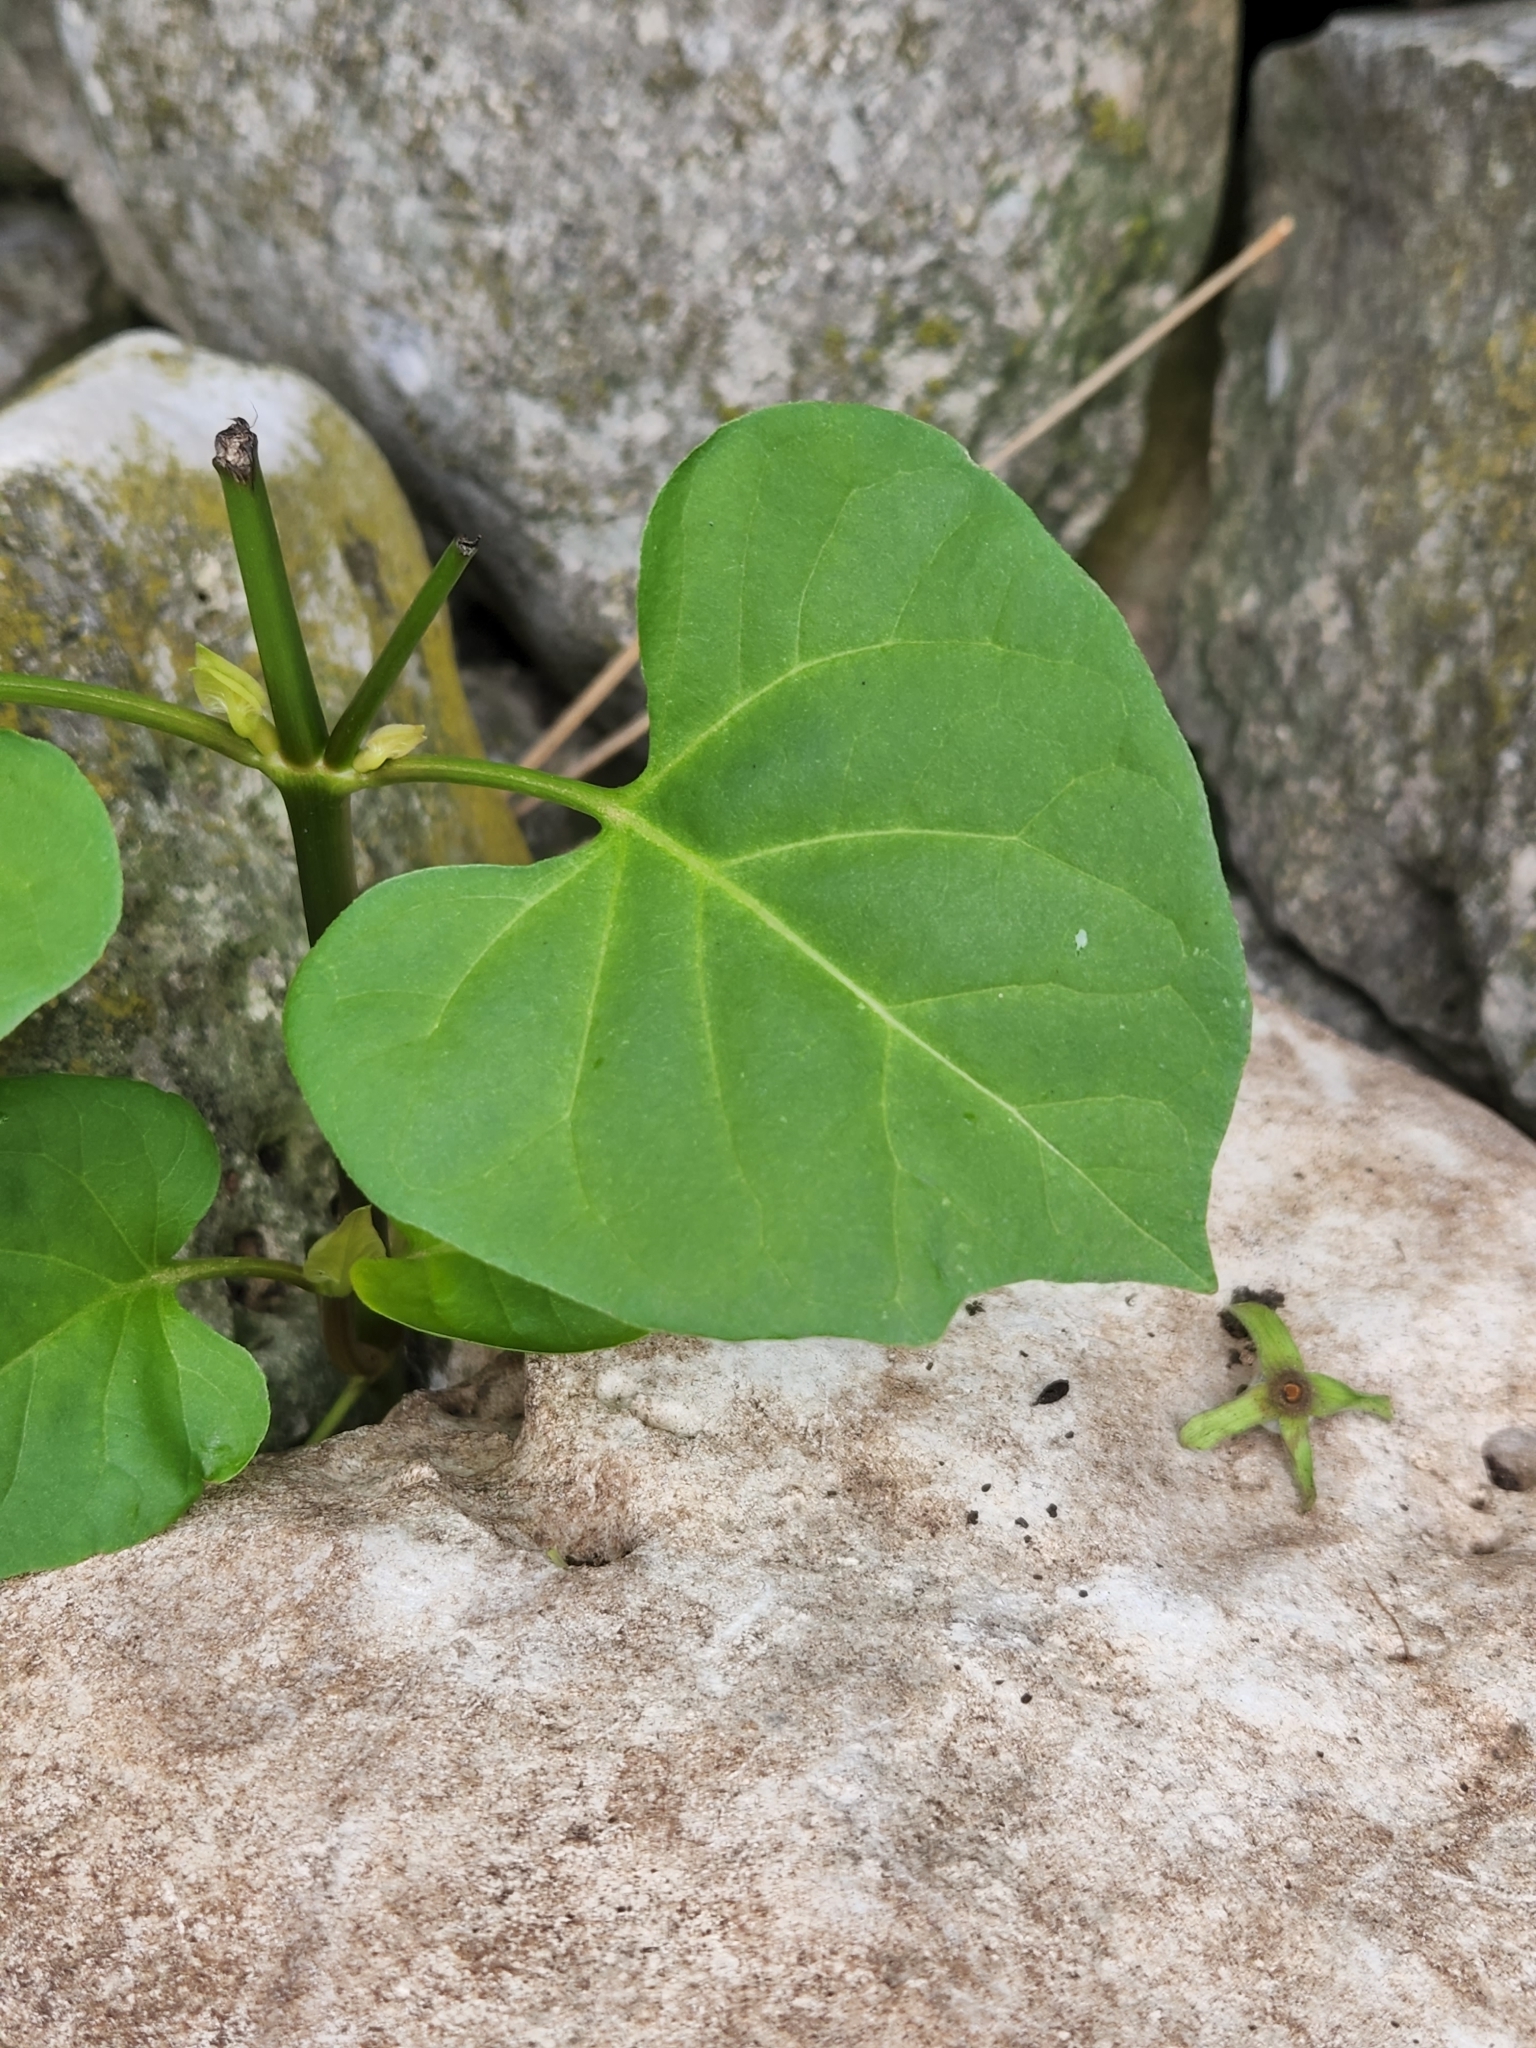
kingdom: Plantae
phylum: Tracheophyta
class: Magnoliopsida
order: Caryophyllales
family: Nyctaginaceae
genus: Mirabilis
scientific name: Mirabilis jalapa
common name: Marvel-of-peru
